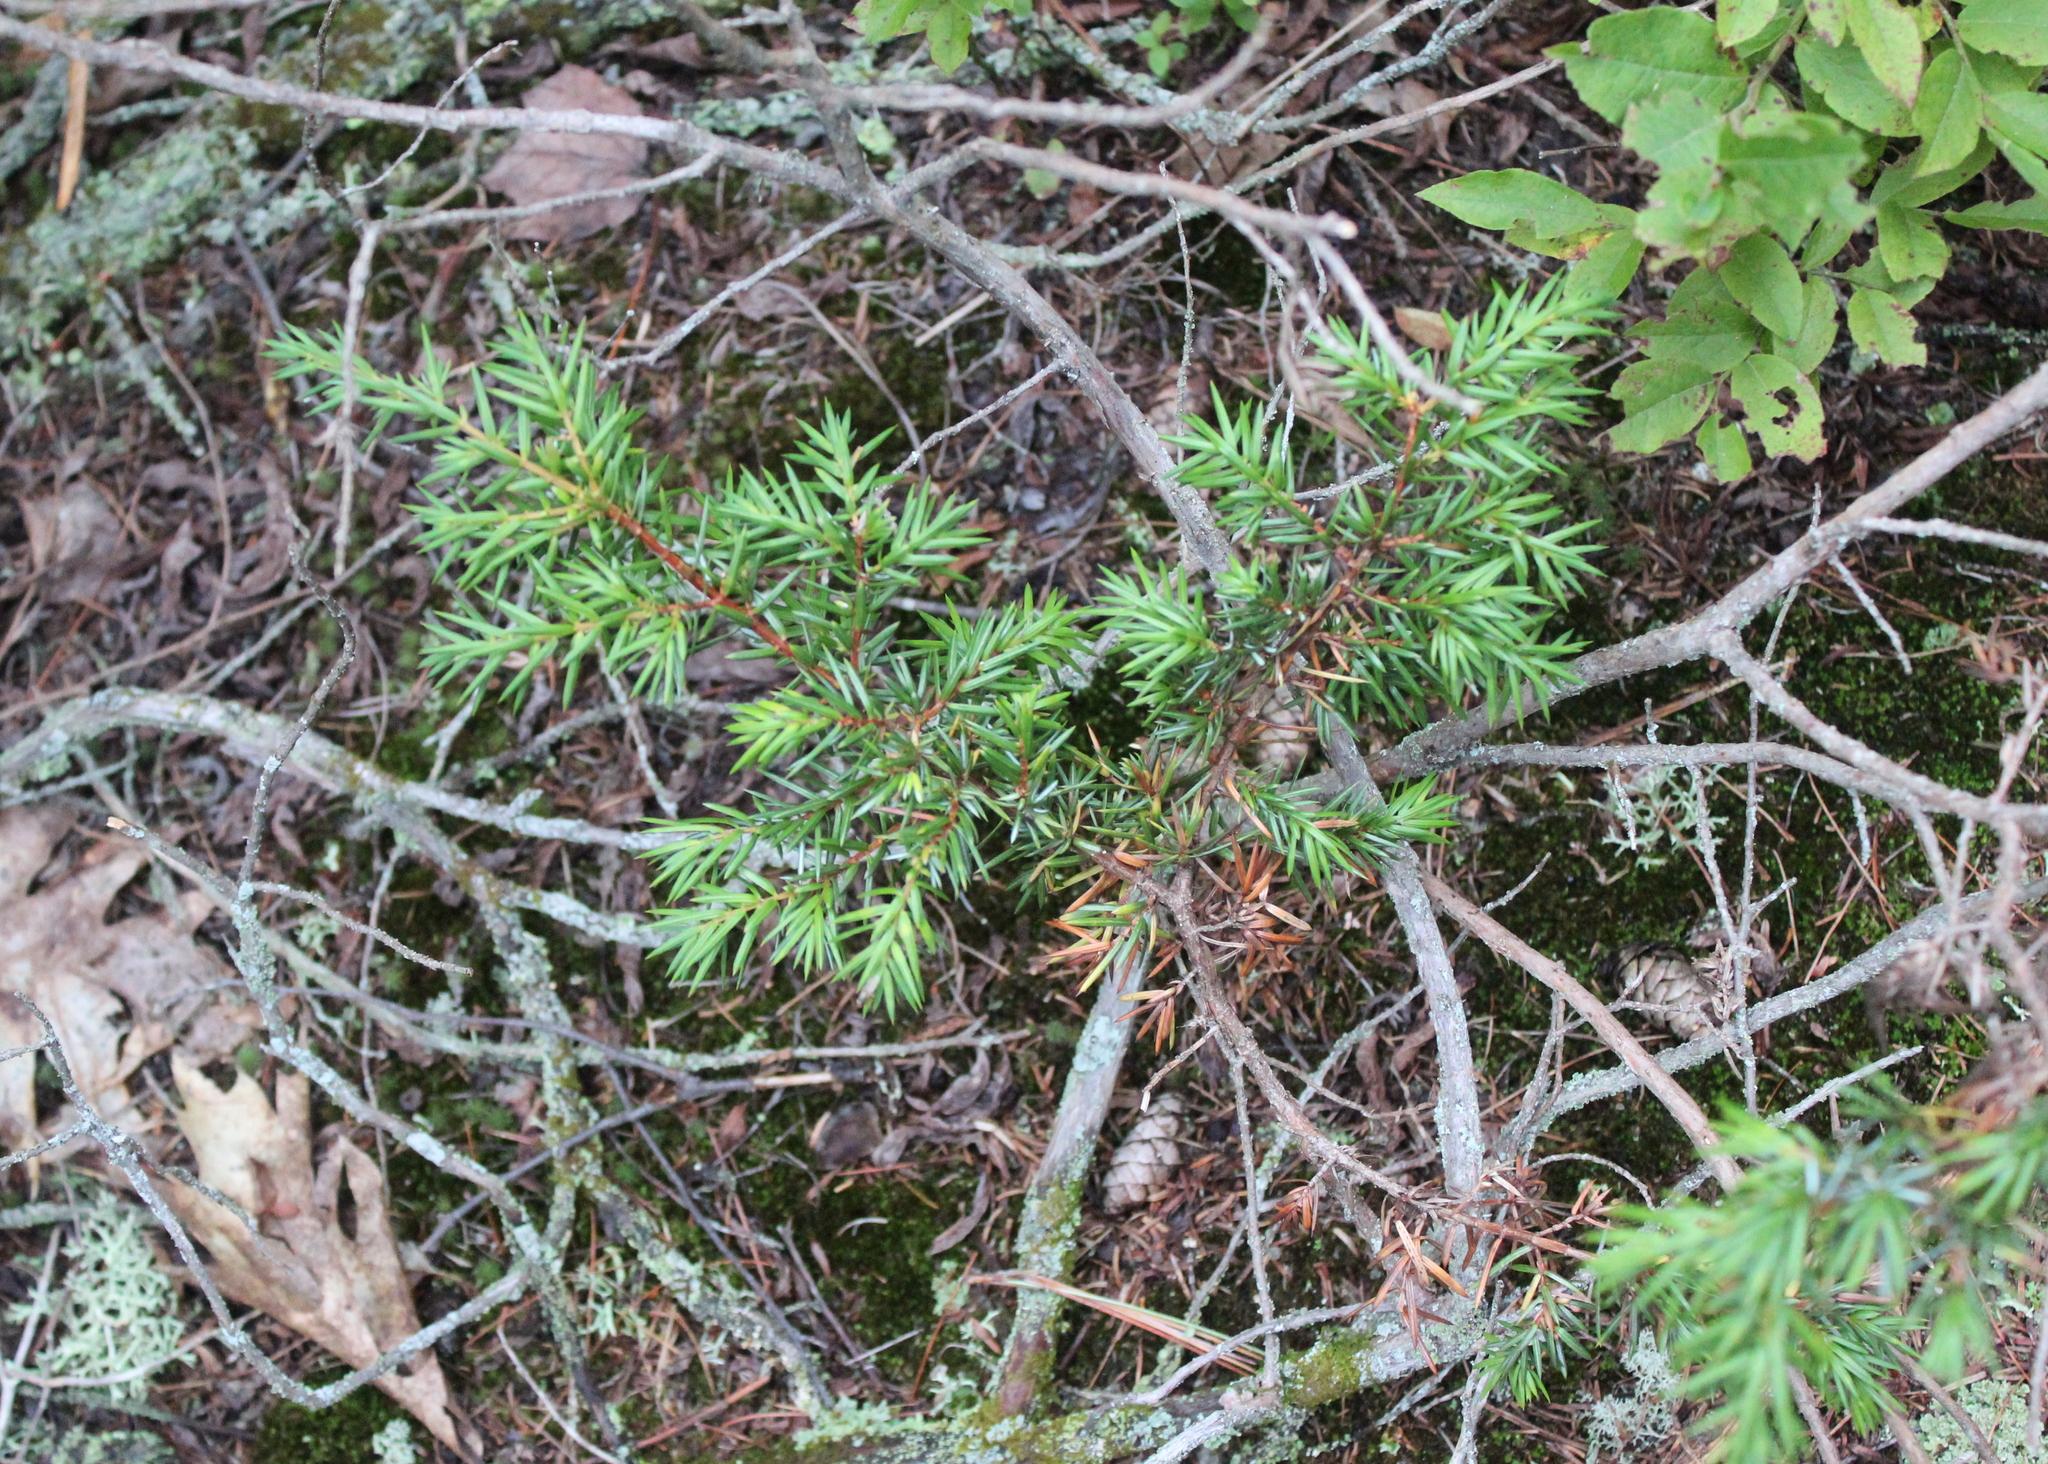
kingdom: Plantae
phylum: Tracheophyta
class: Pinopsida
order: Pinales
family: Cupressaceae
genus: Juniperus
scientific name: Juniperus communis
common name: Common juniper
